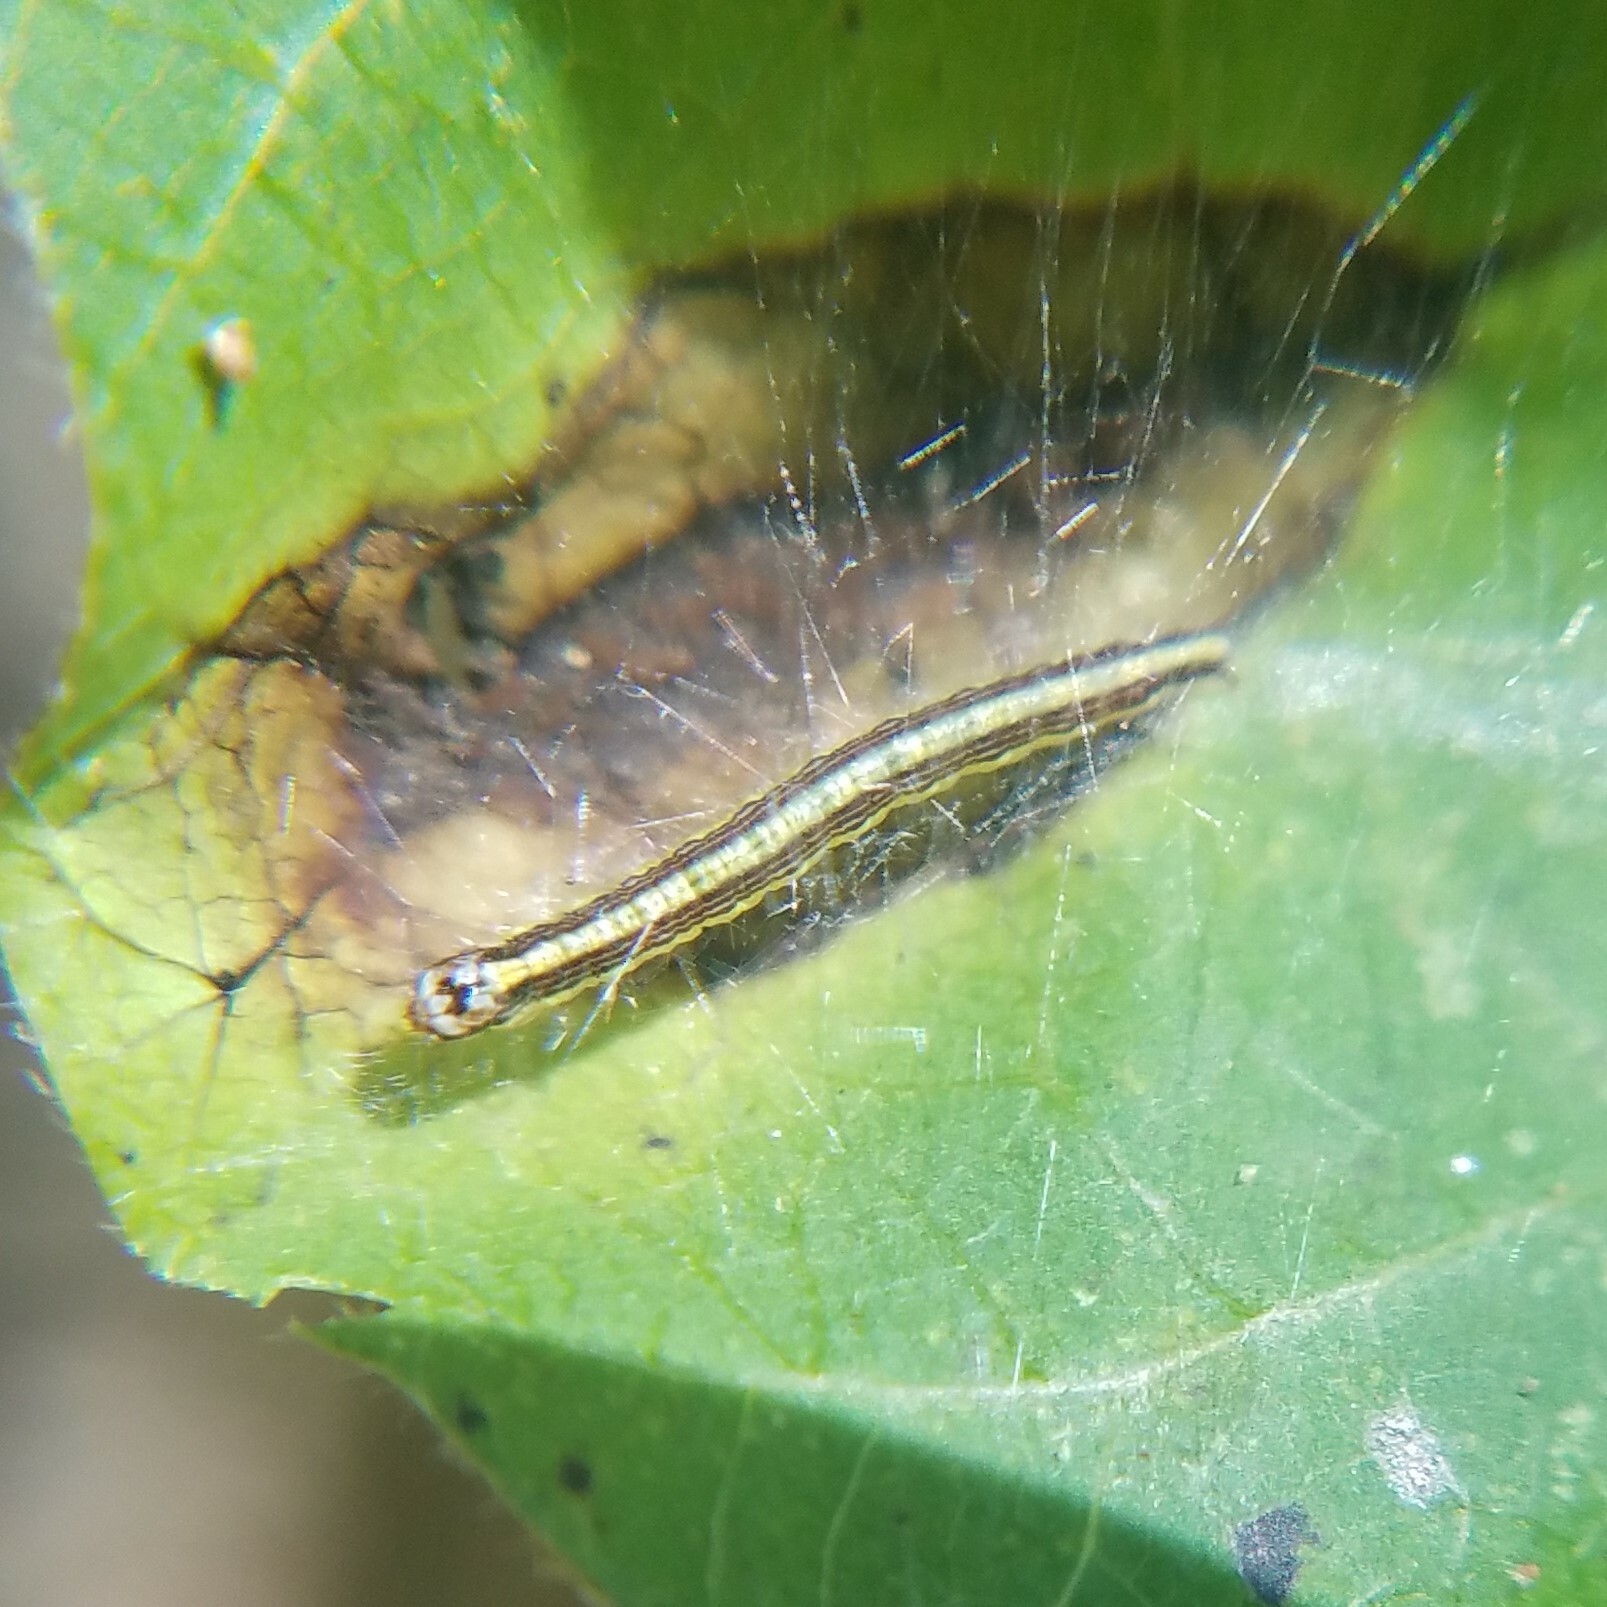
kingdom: Animalia
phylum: Arthropoda
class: Insecta
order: Lepidoptera
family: Pyralidae
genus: Epipaschia
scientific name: Epipaschia superatalis
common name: Dimorphic macalla moth
